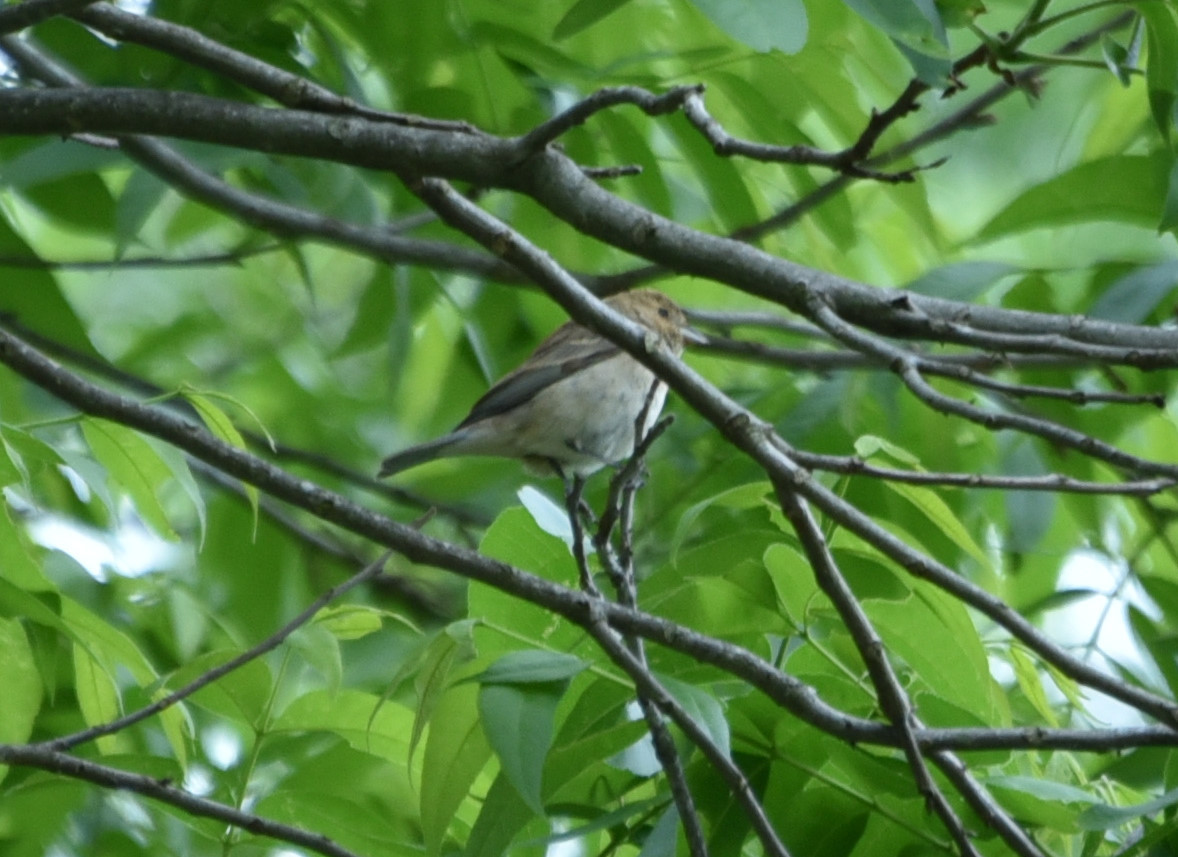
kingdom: Animalia
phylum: Chordata
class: Aves
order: Passeriformes
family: Cardinalidae
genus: Passerina
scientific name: Passerina cyanea
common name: Indigo bunting
